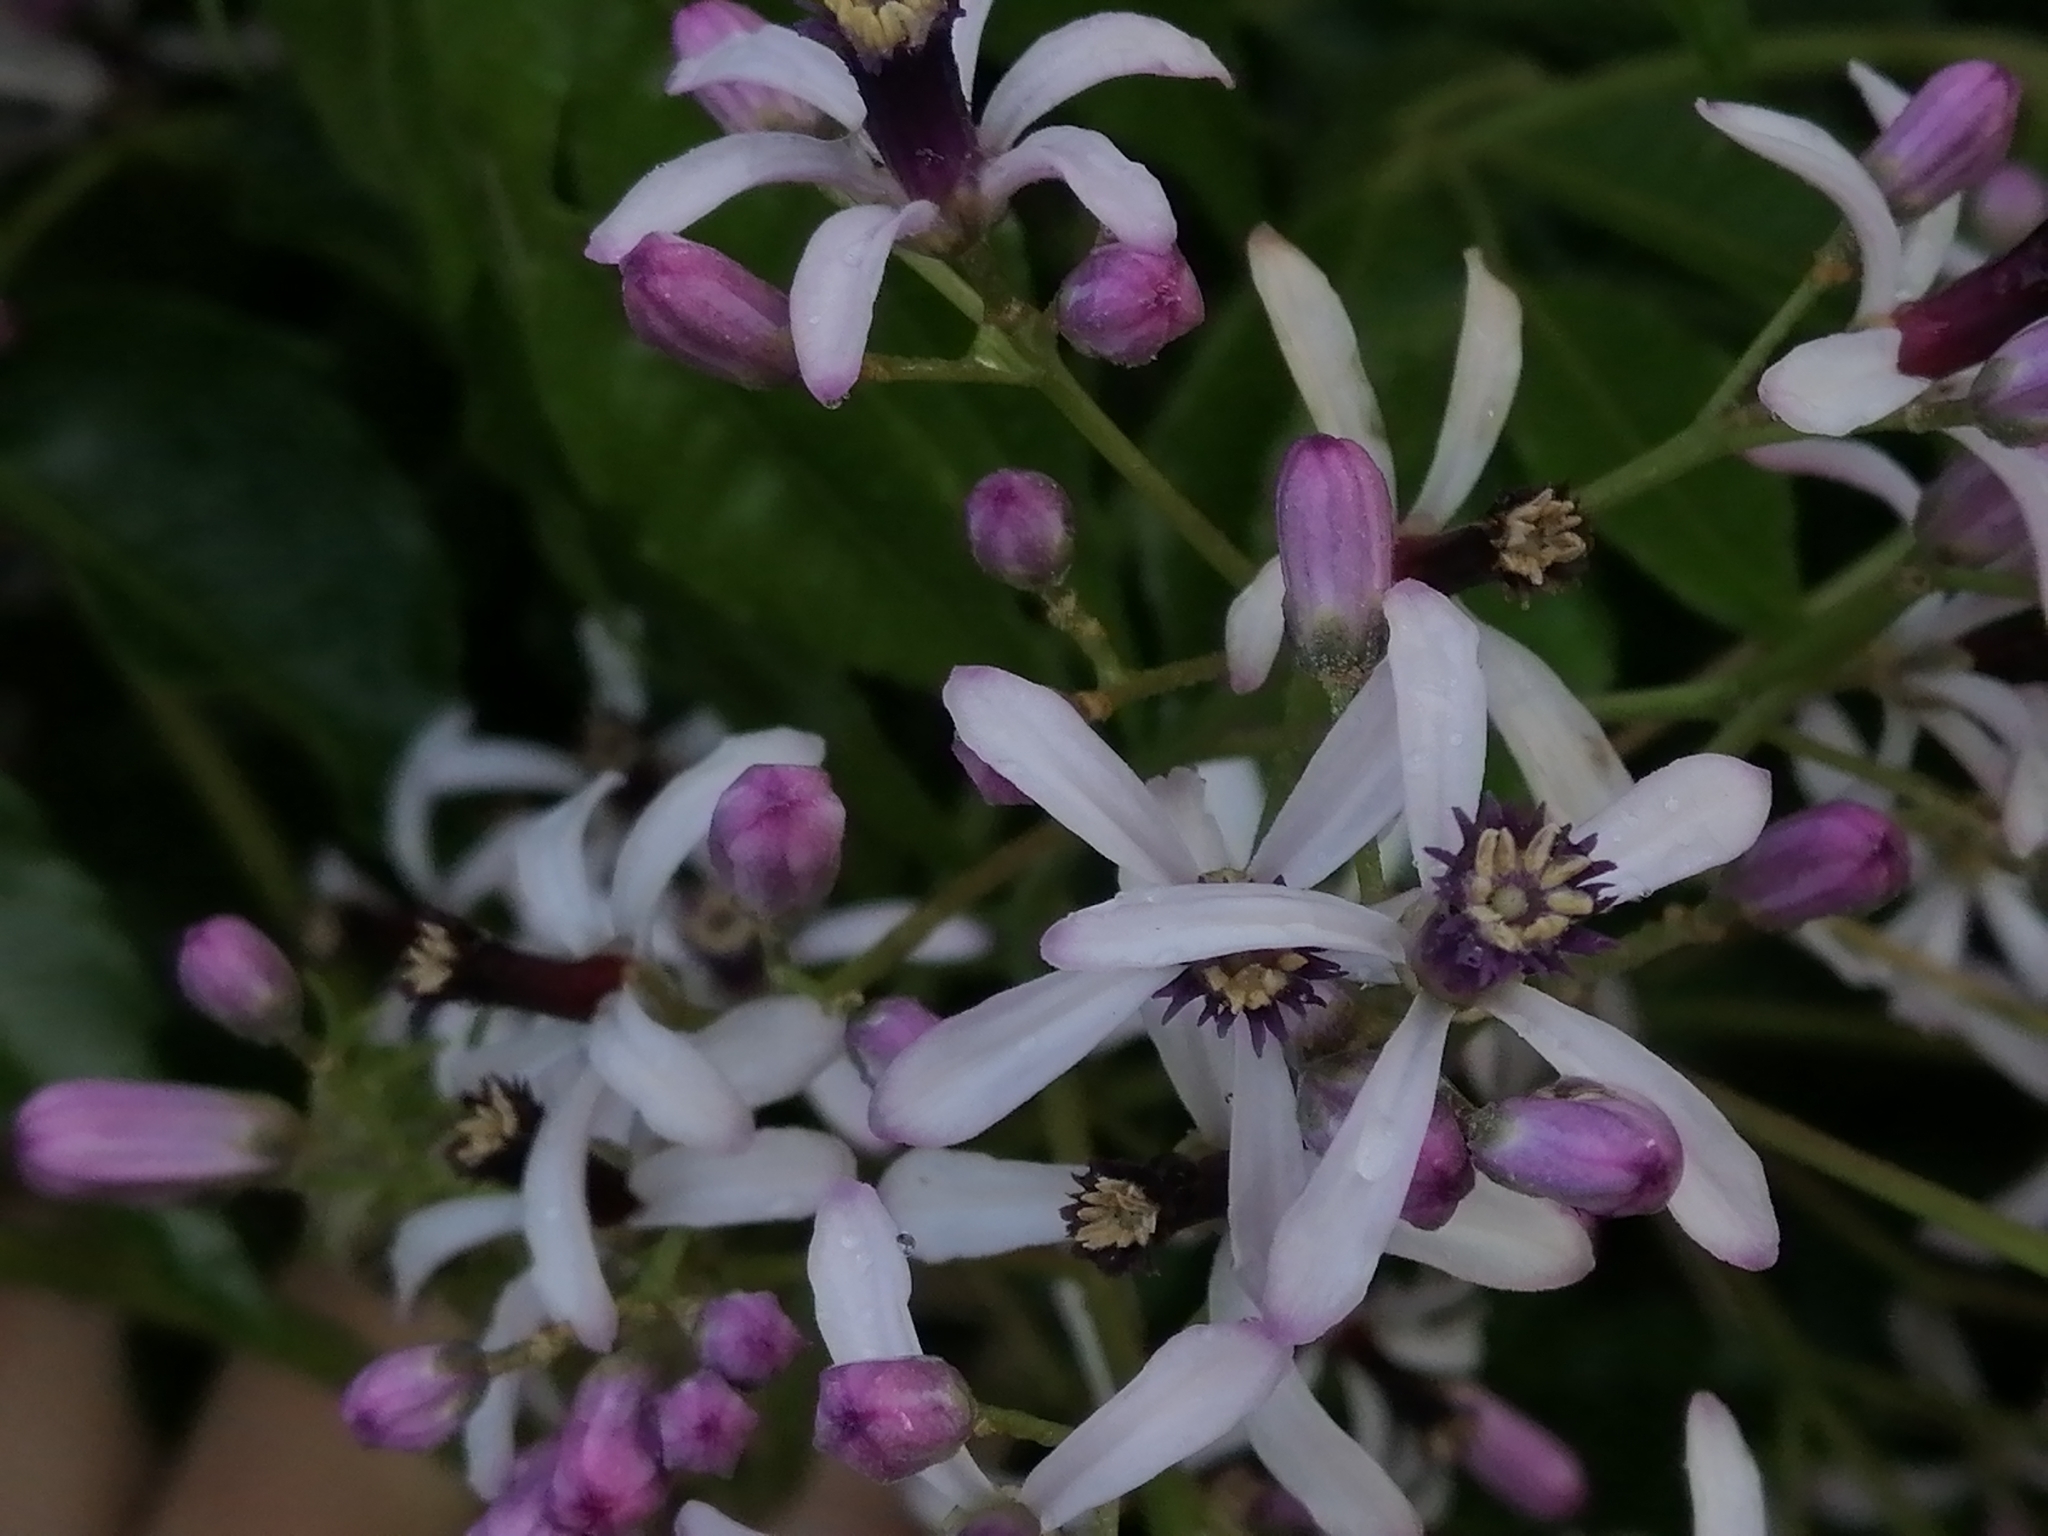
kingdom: Plantae
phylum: Tracheophyta
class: Magnoliopsida
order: Sapindales
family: Meliaceae
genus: Melia
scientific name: Melia azedarach
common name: Chinaberrytree
